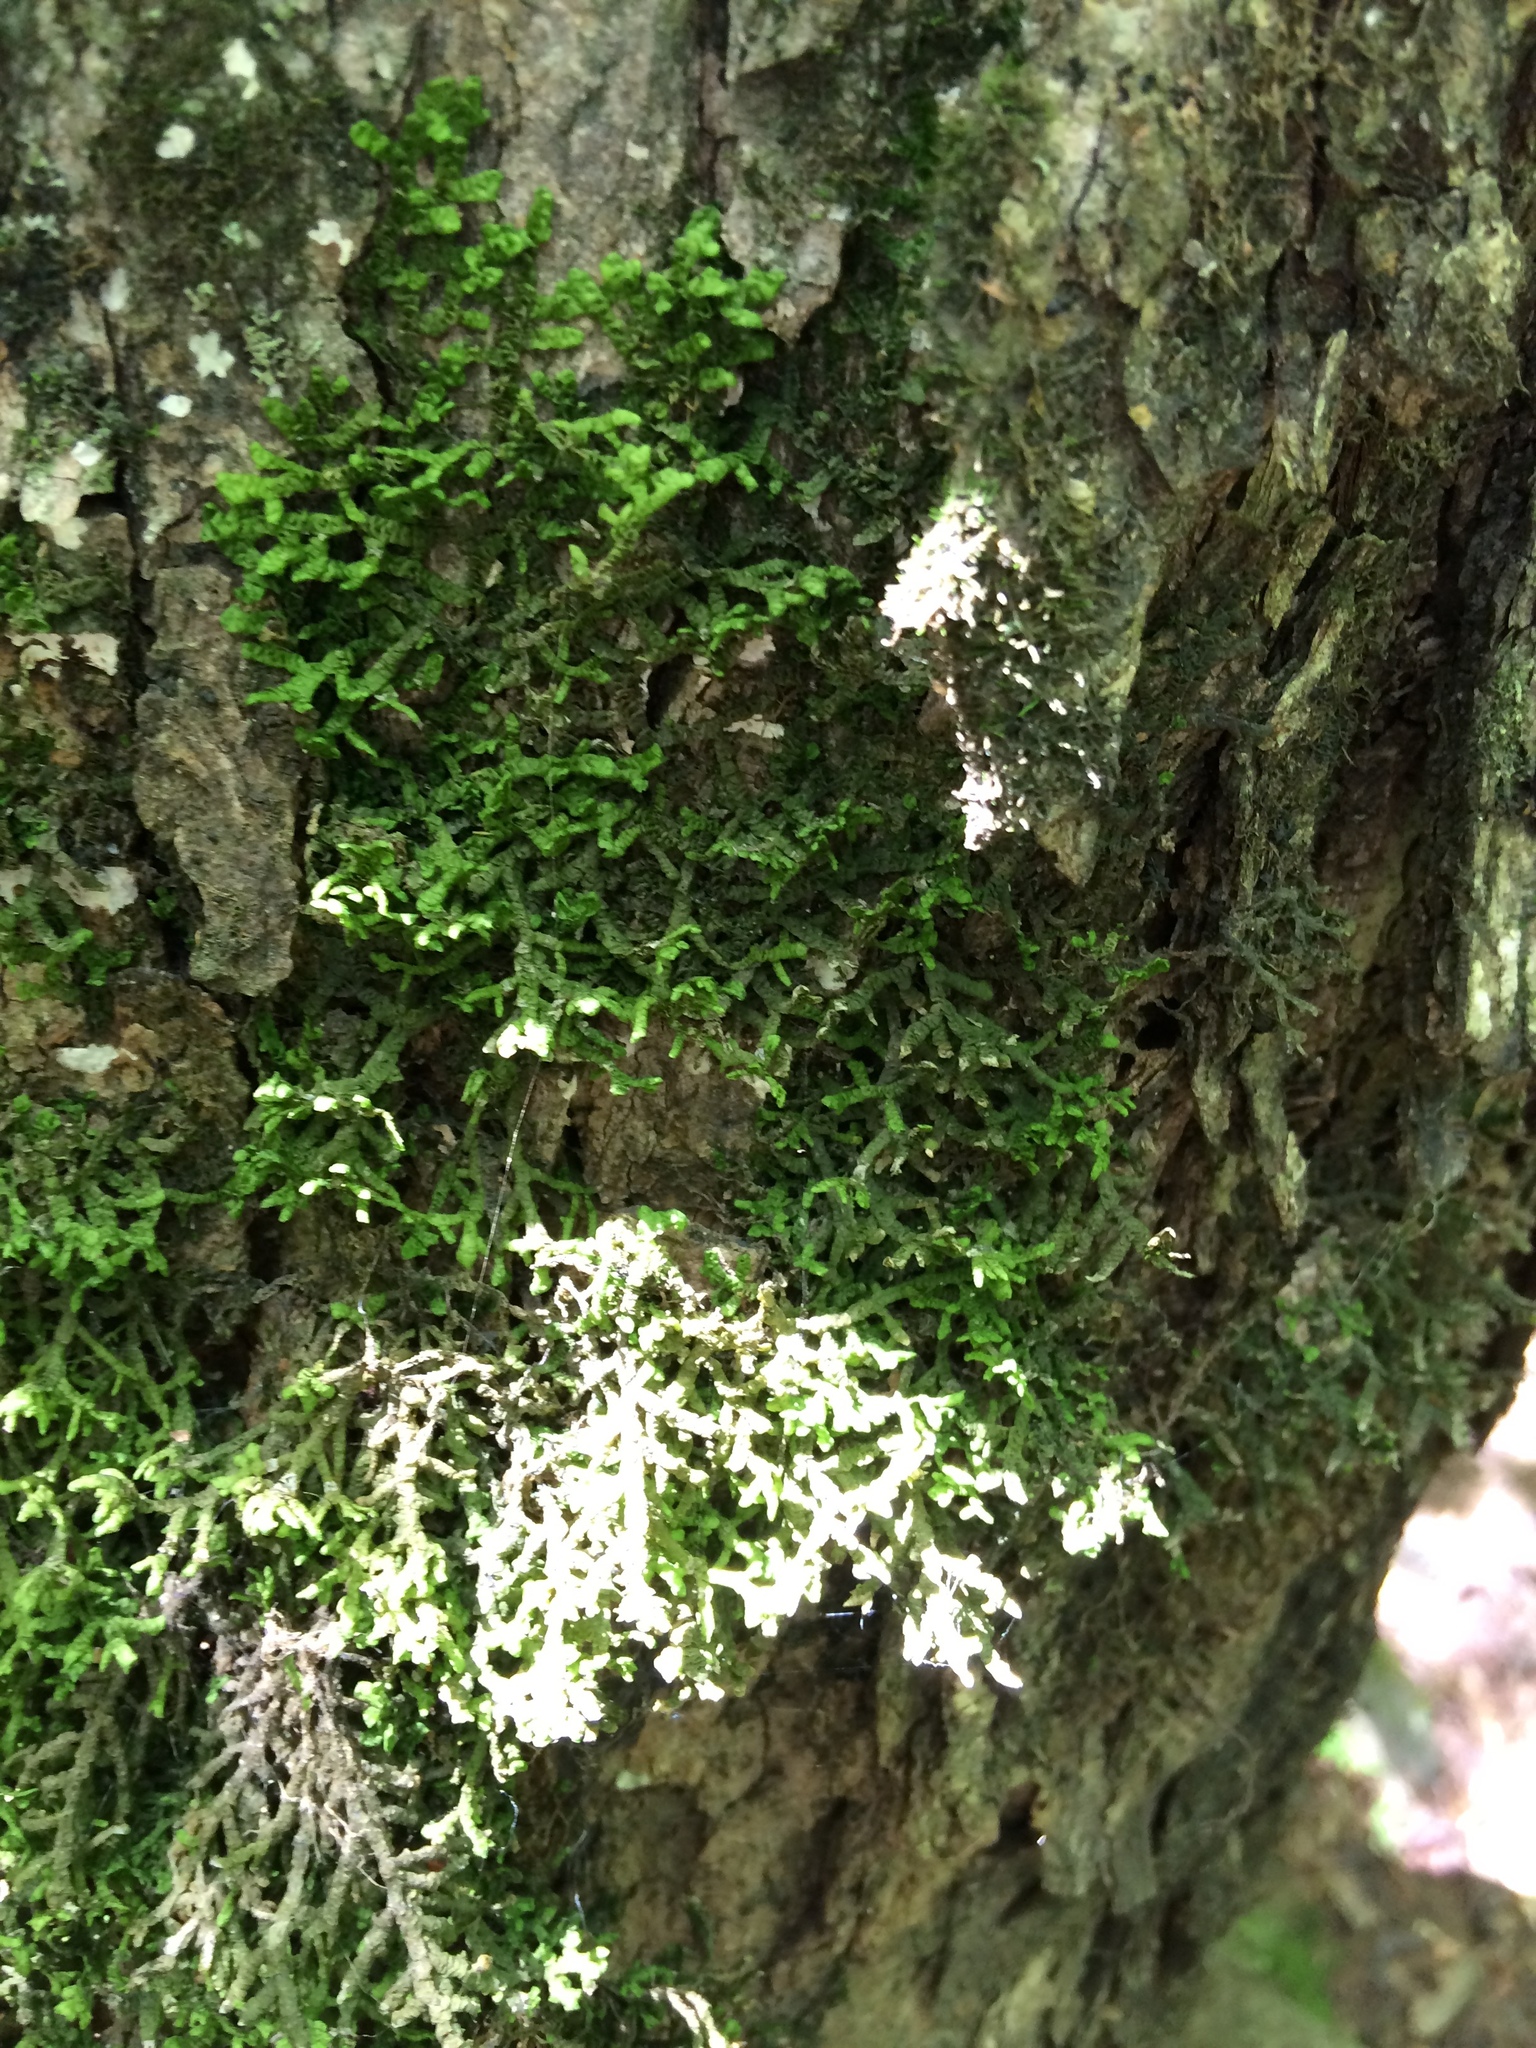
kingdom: Plantae
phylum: Marchantiophyta
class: Jungermanniopsida
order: Porellales
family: Porellaceae
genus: Porella
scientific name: Porella platyphylla
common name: Wall scalewort
